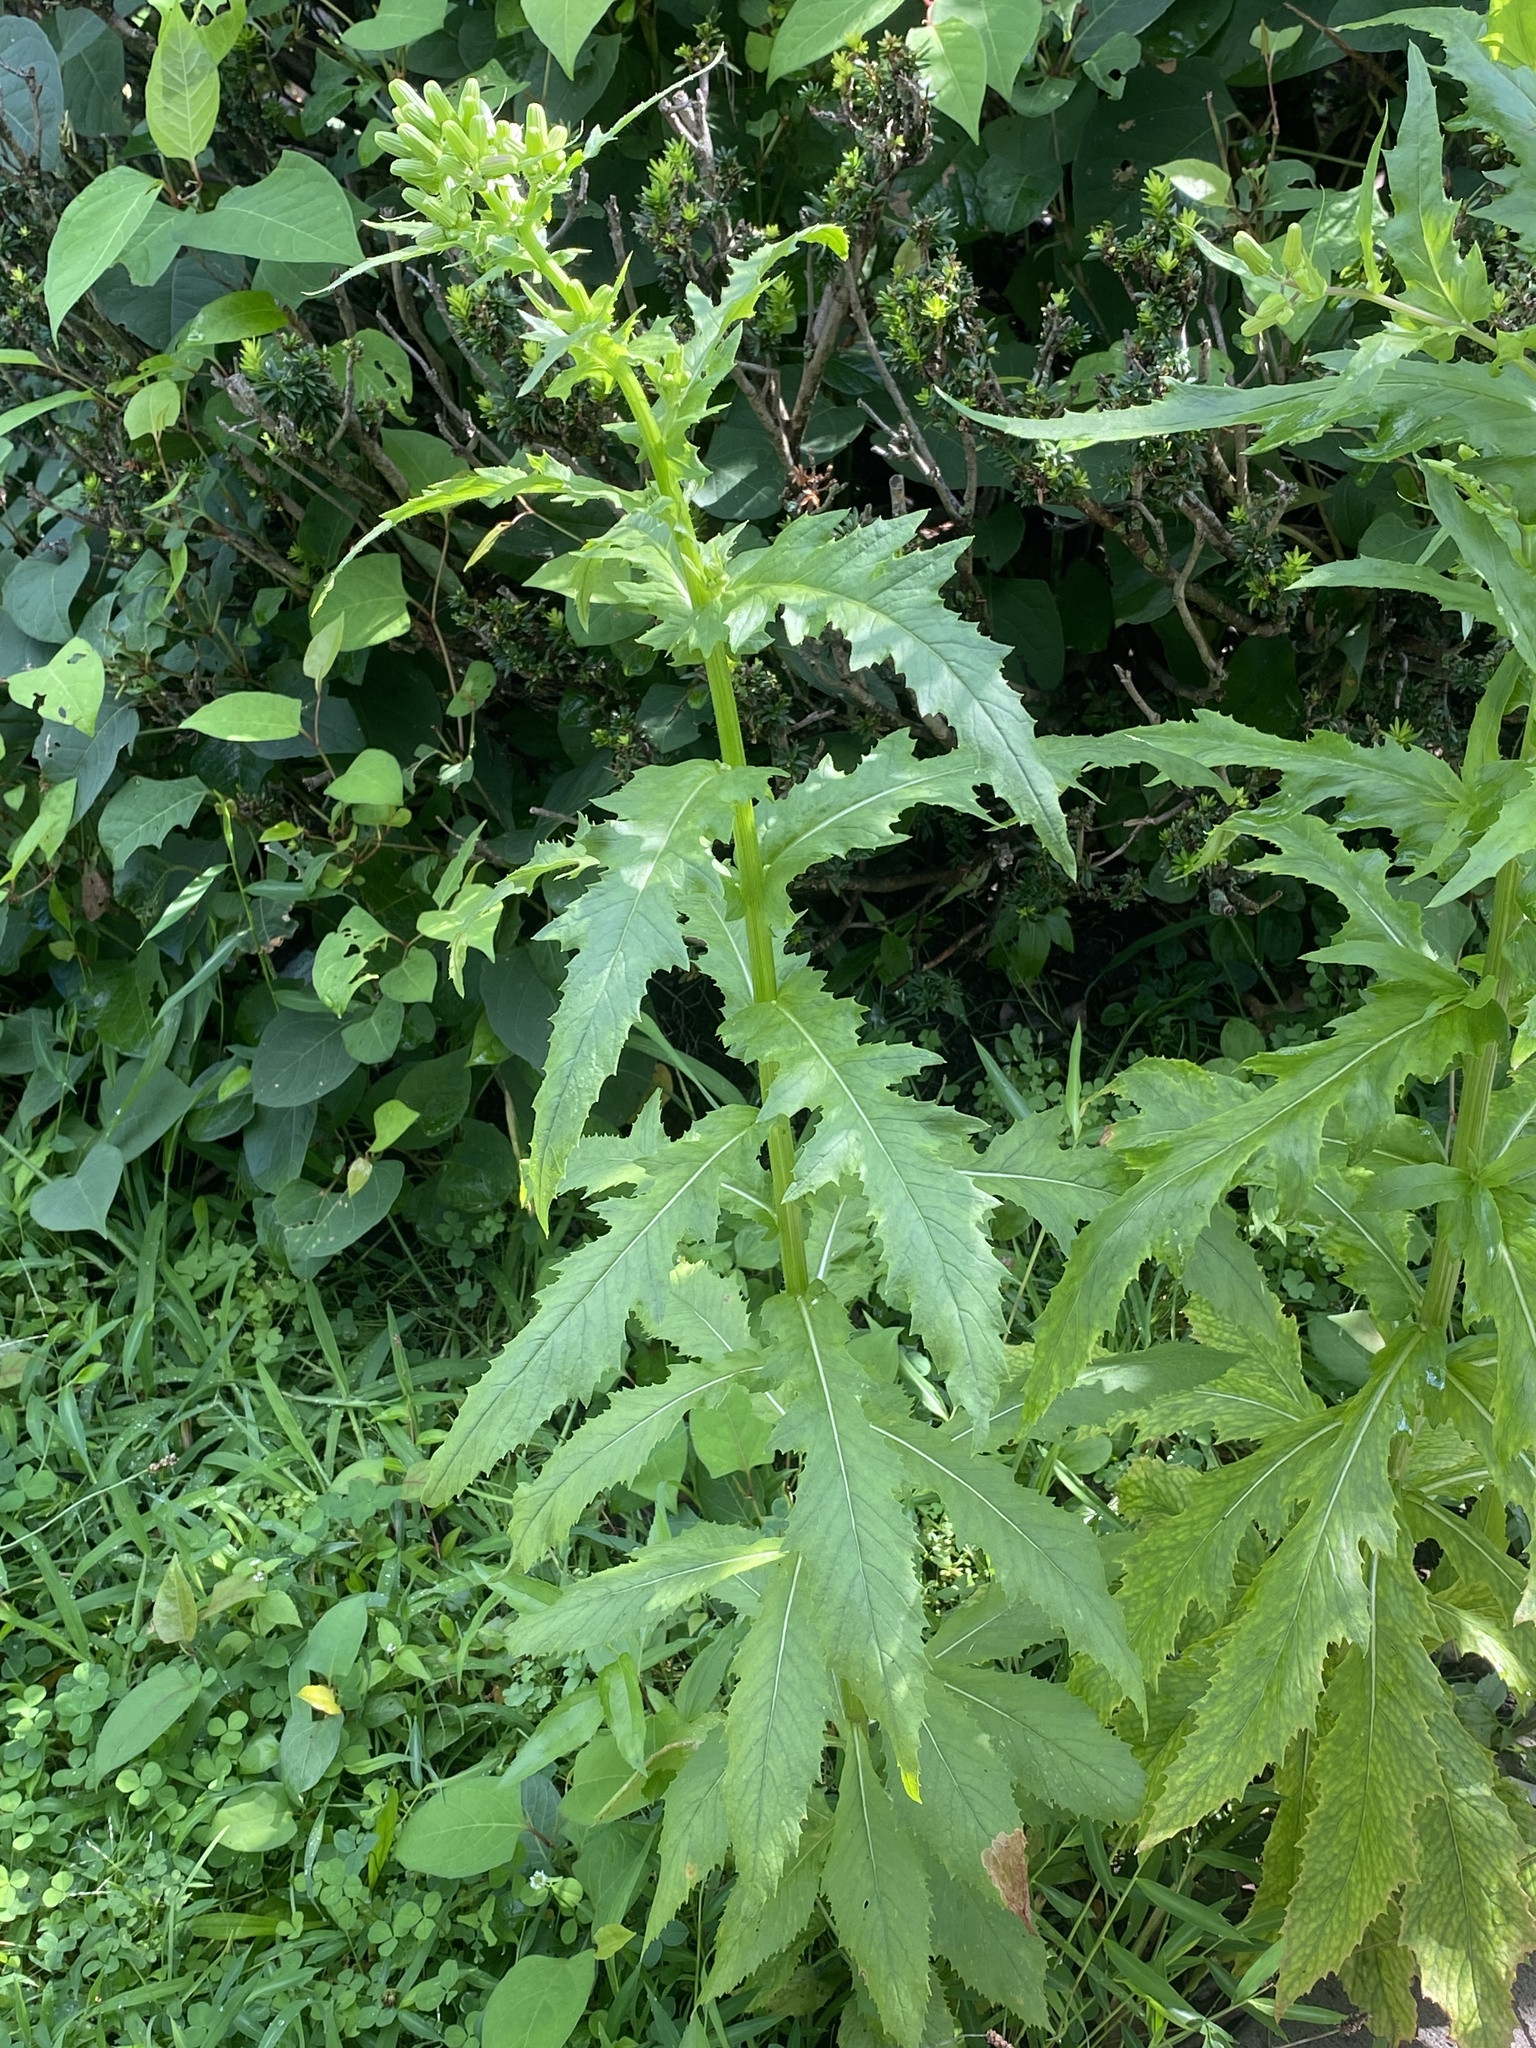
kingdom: Plantae
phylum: Tracheophyta
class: Magnoliopsida
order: Asterales
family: Asteraceae
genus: Erechtites
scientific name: Erechtites hieraciifolius
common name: American burnweed
